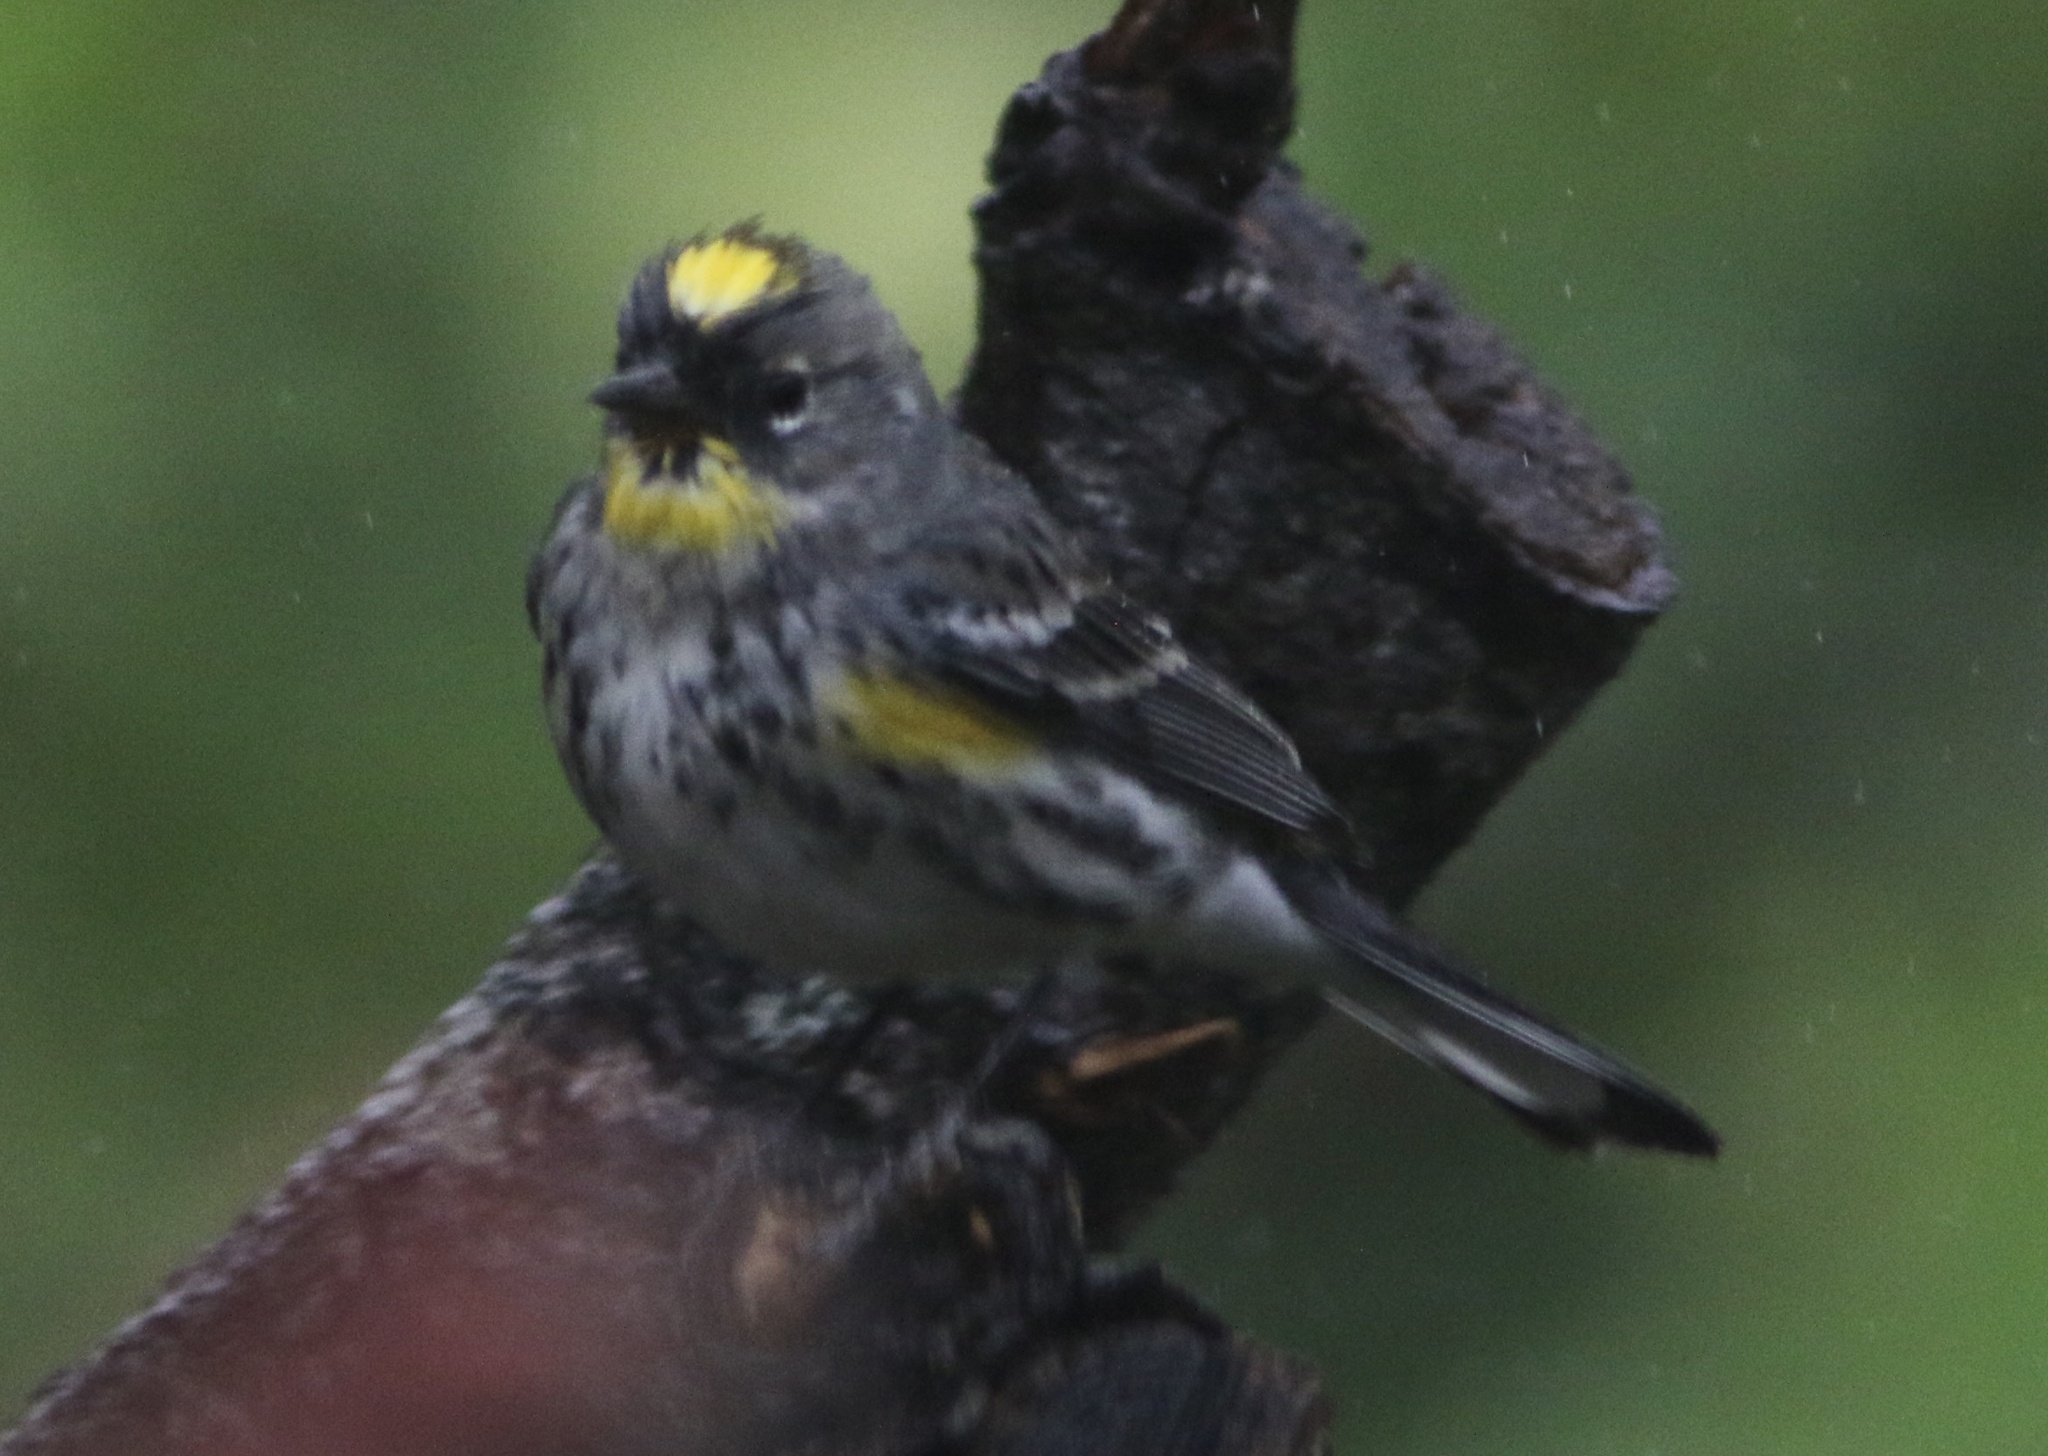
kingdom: Animalia
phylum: Chordata
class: Aves
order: Passeriformes
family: Parulidae
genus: Setophaga
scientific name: Setophaga coronata
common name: Myrtle warbler
